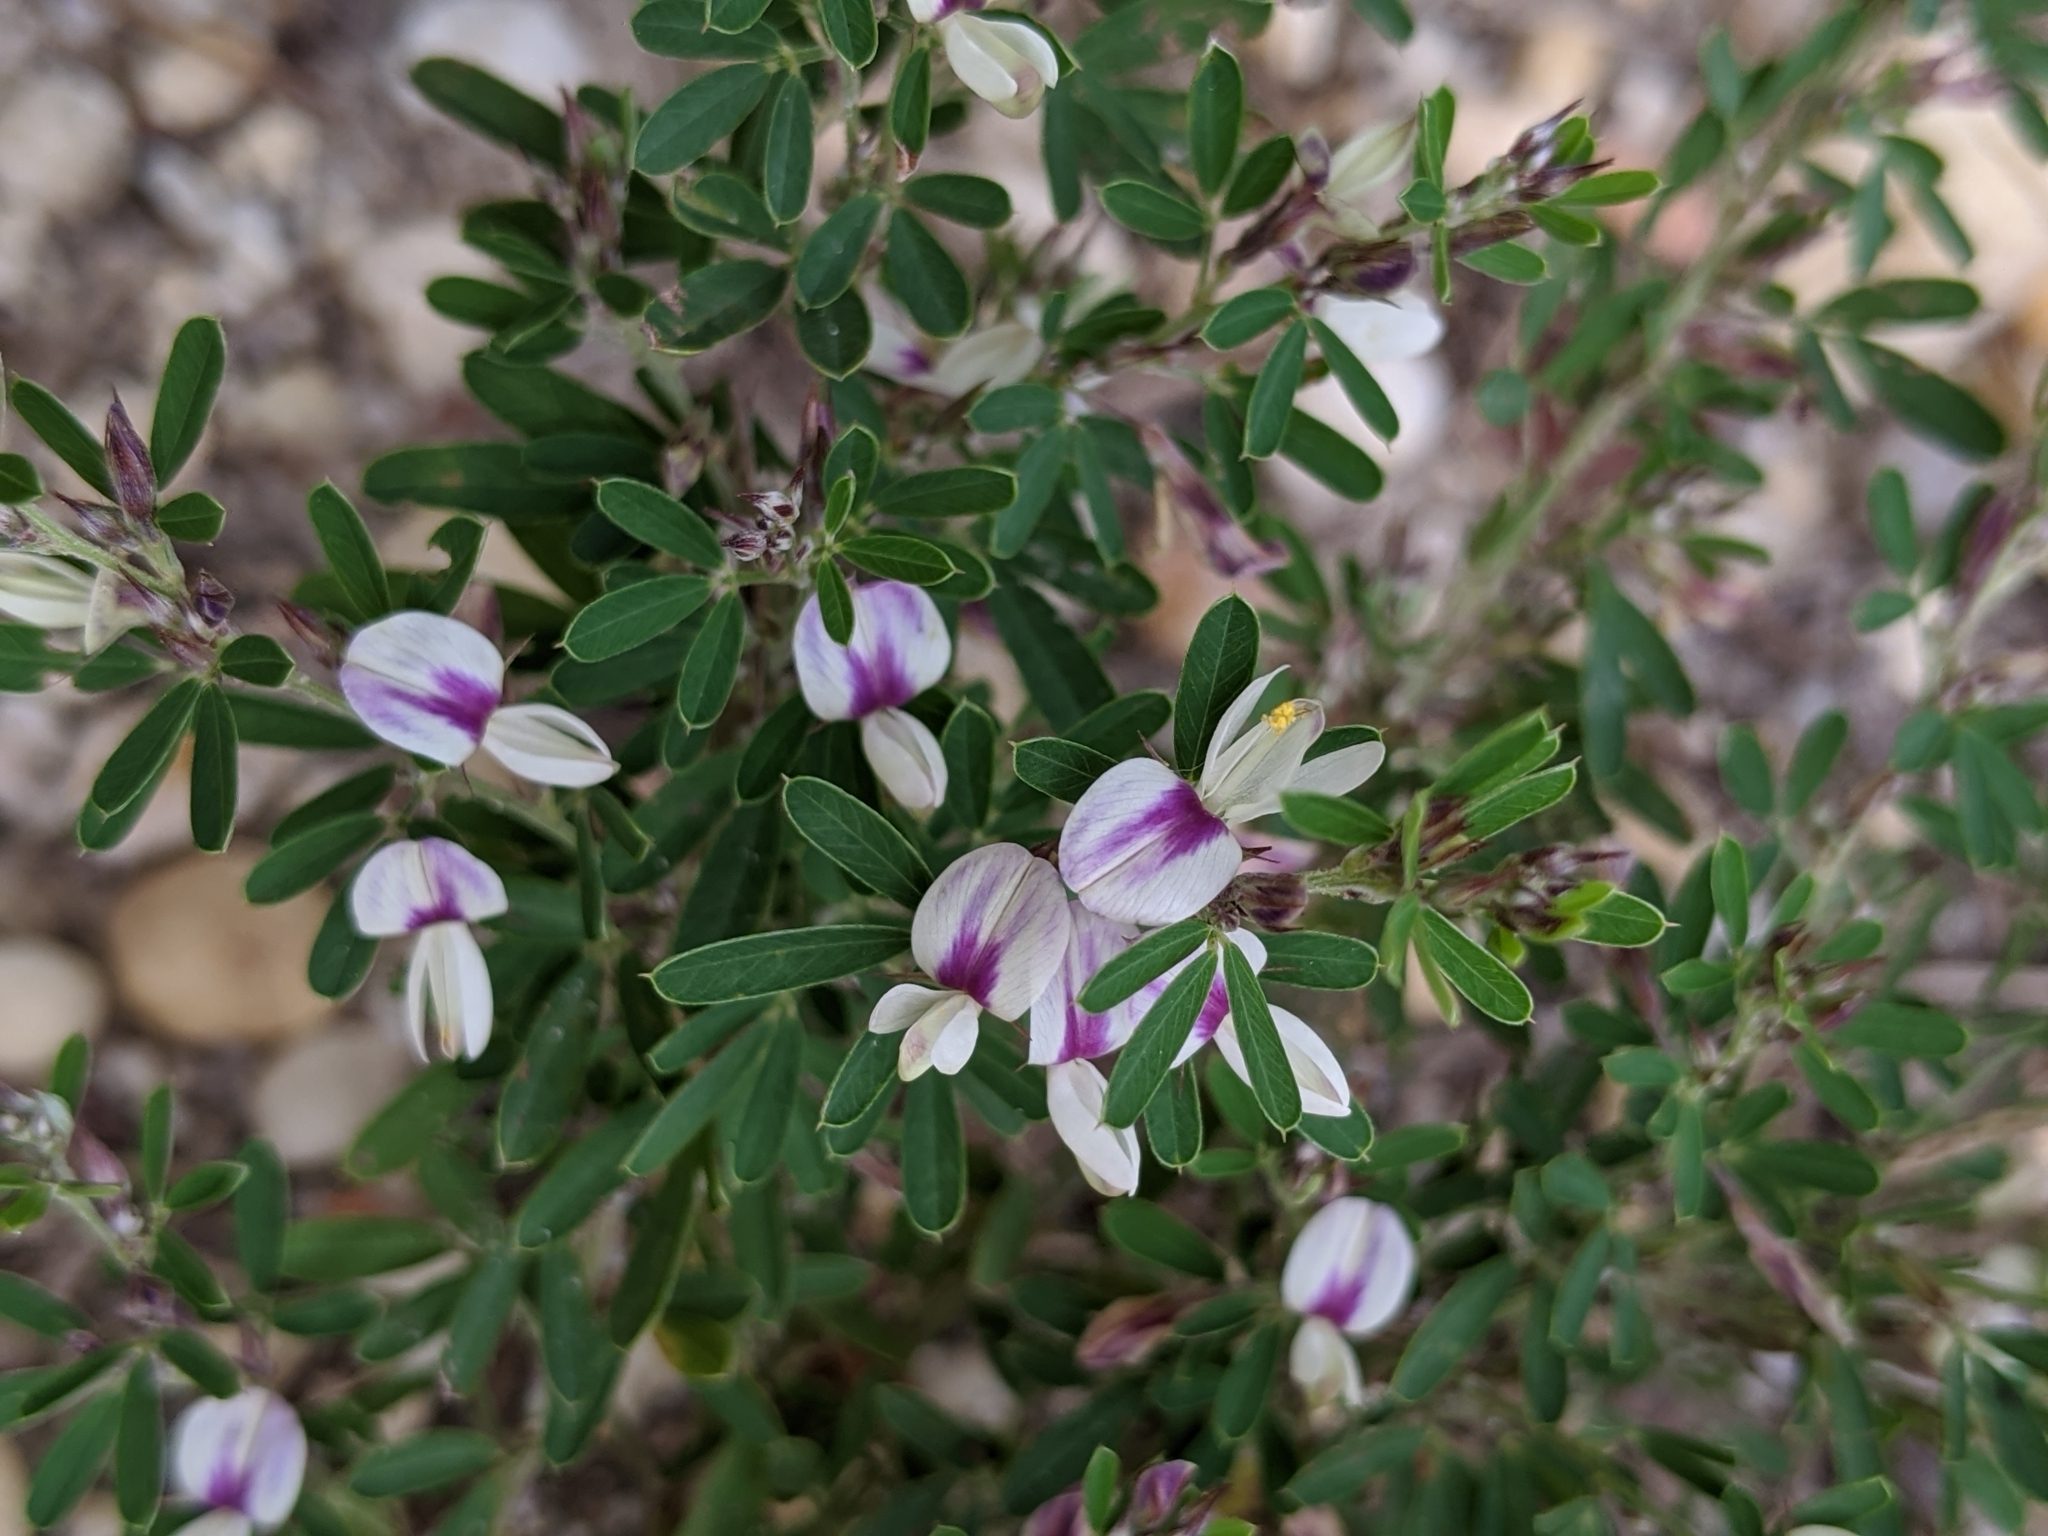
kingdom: Plantae
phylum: Tracheophyta
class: Magnoliopsida
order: Fabales
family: Fabaceae
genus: Lespedeza
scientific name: Lespedeza cuneata
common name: Chinese bush-clover
